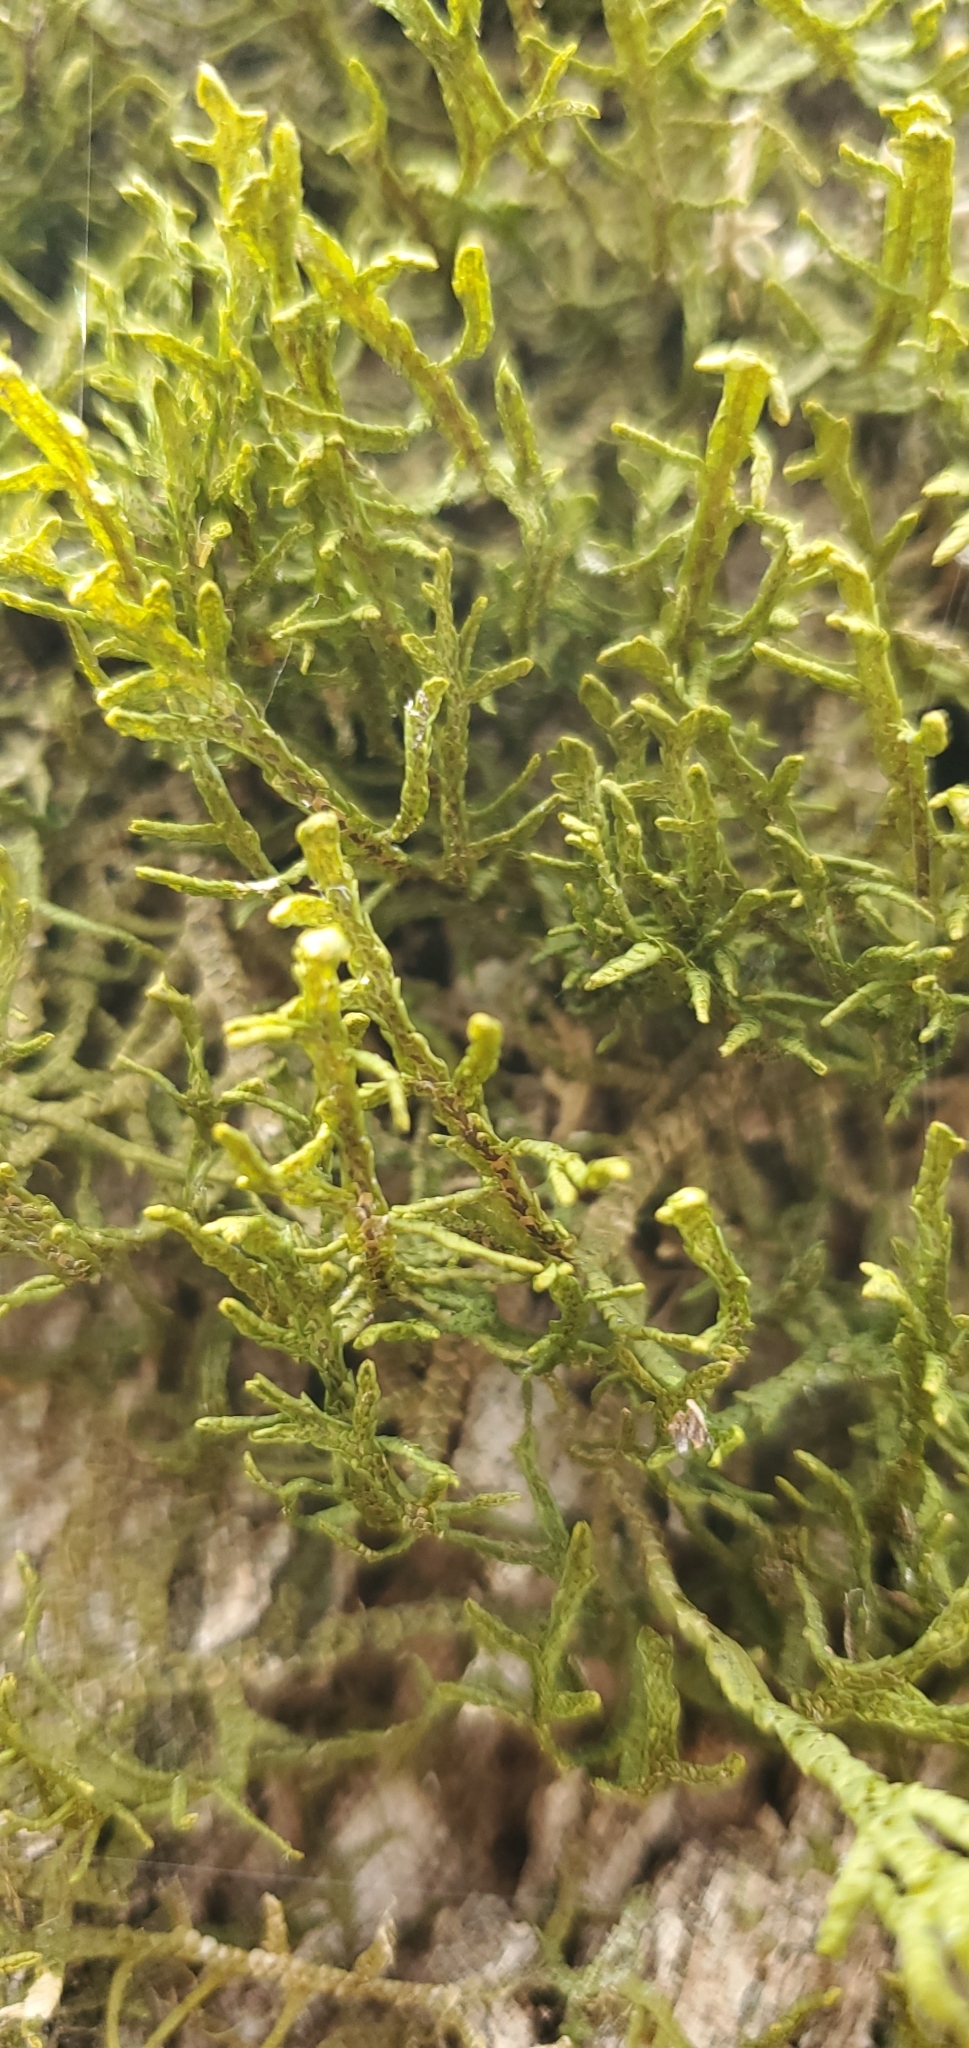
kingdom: Plantae
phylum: Marchantiophyta
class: Jungermanniopsida
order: Porellales
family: Porellaceae
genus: Porella
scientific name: Porella platyphylla
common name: Wall scalewort
